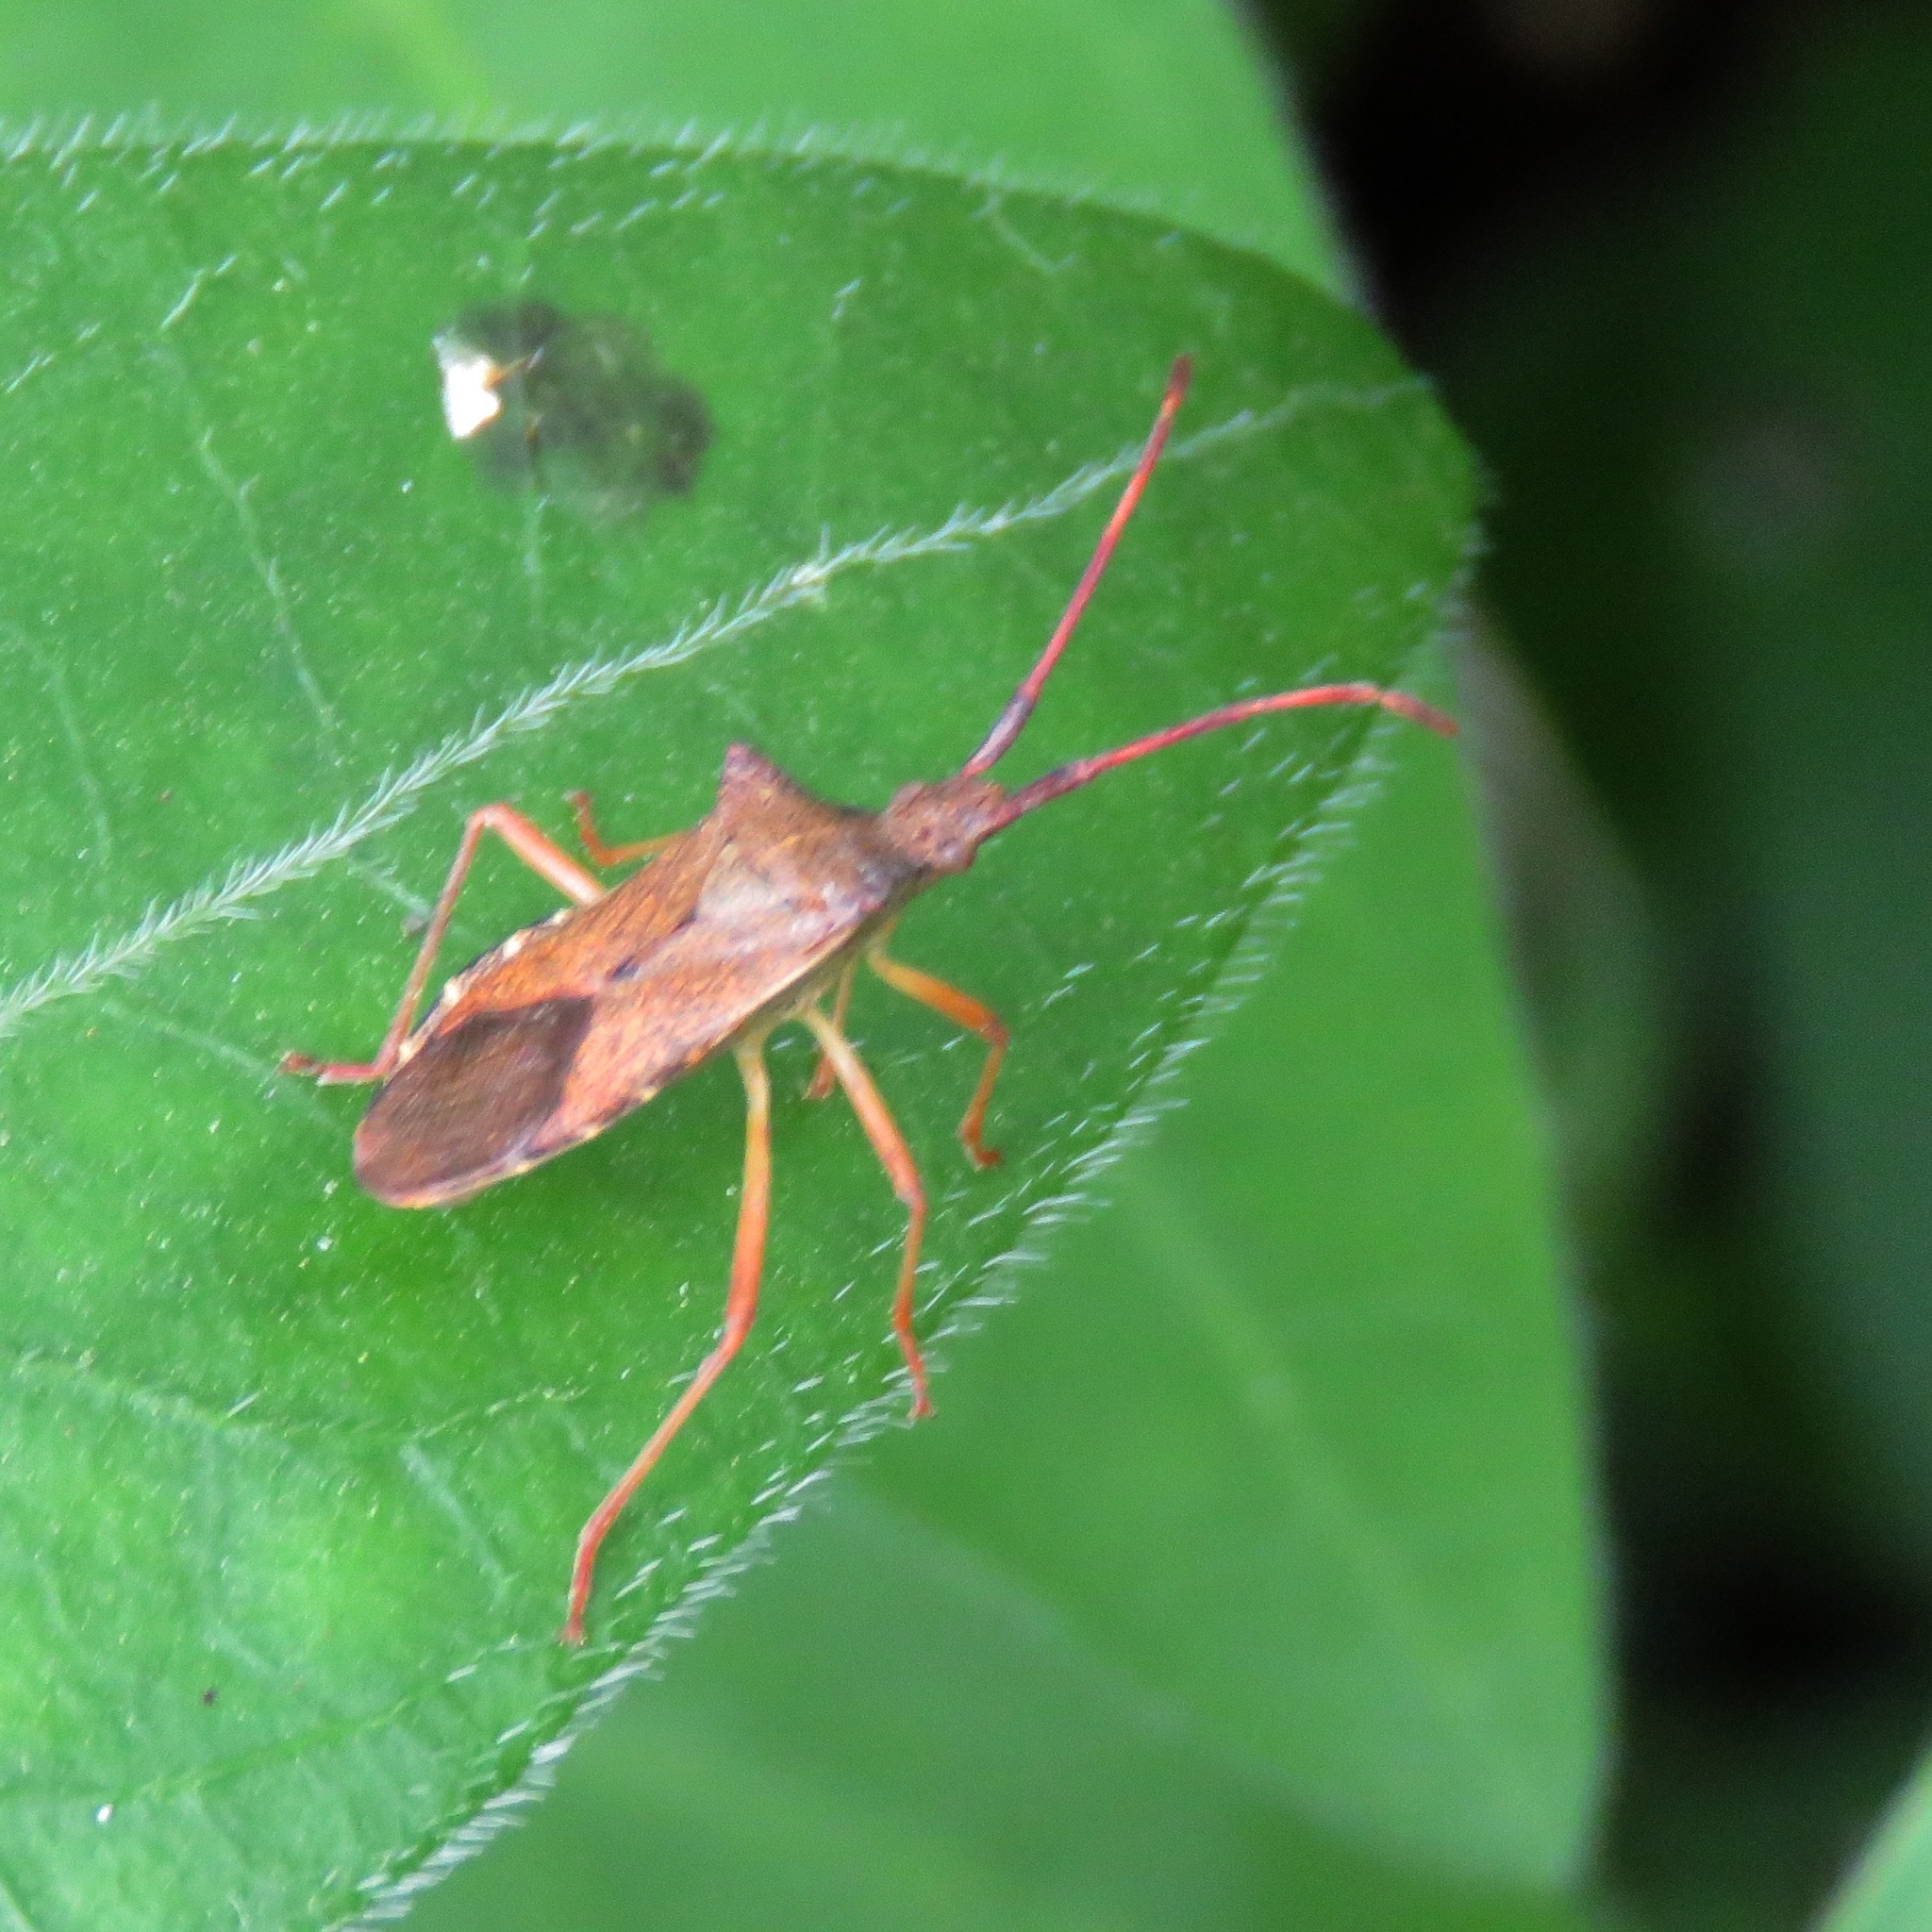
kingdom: Animalia
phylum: Arthropoda
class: Insecta
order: Hemiptera
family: Coreidae
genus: Gonocerus
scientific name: Gonocerus acuteangulatus
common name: Box bug
